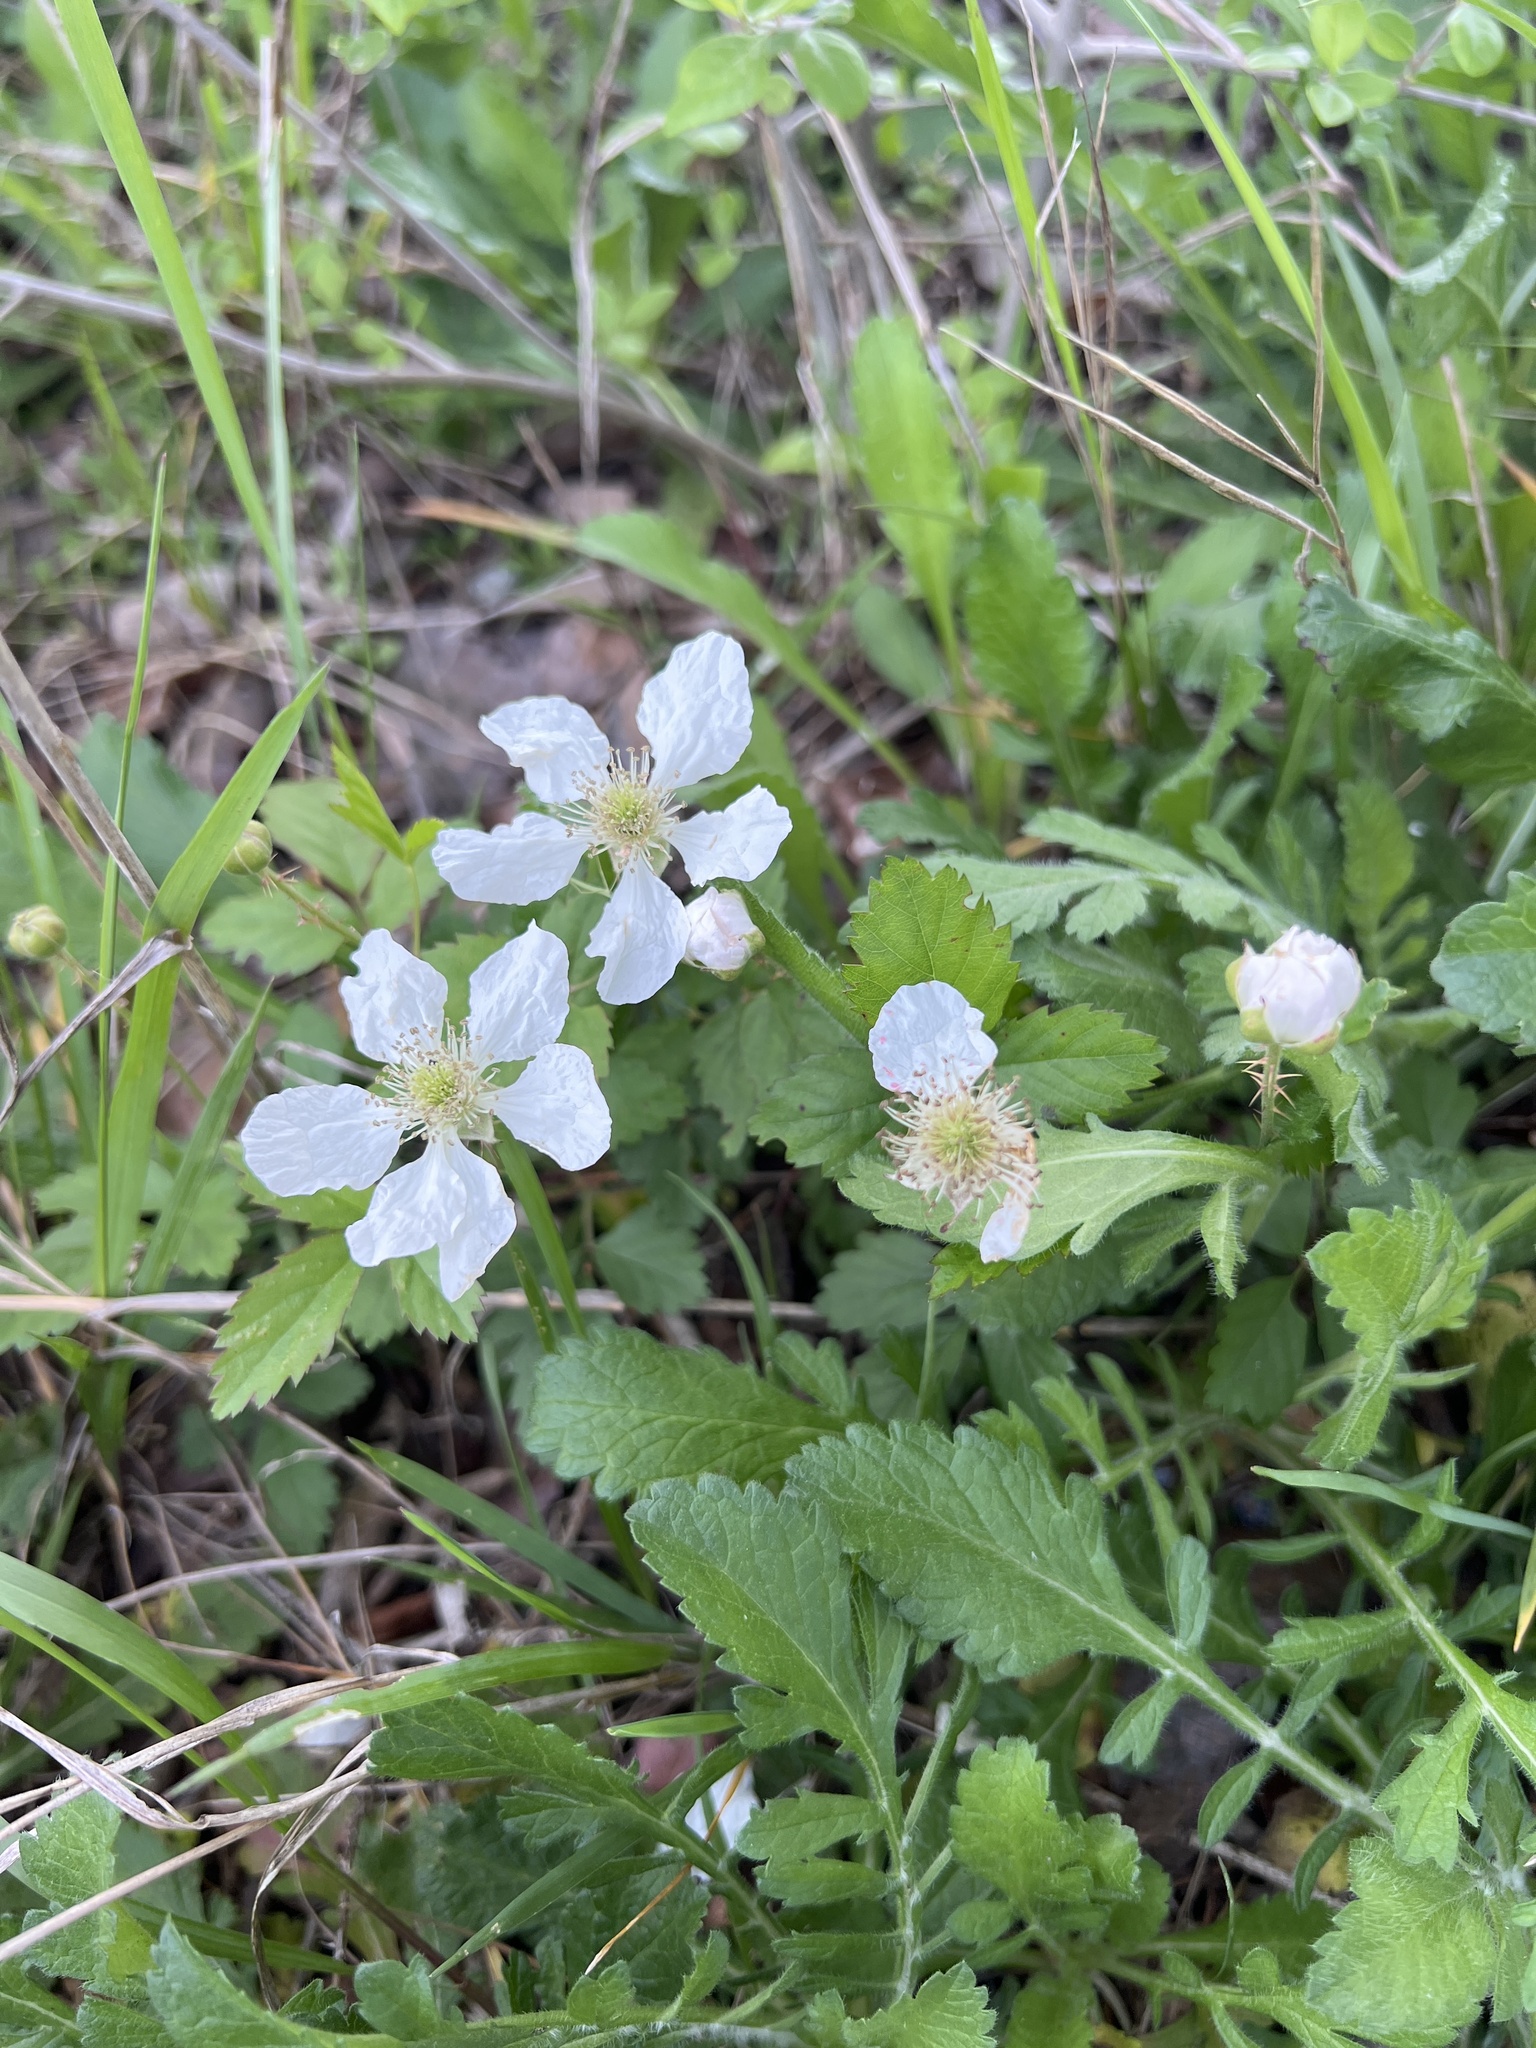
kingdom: Plantae
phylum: Tracheophyta
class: Magnoliopsida
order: Rosales
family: Rosaceae
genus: Rubus
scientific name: Rubus trivialis
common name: Southern dewberry
